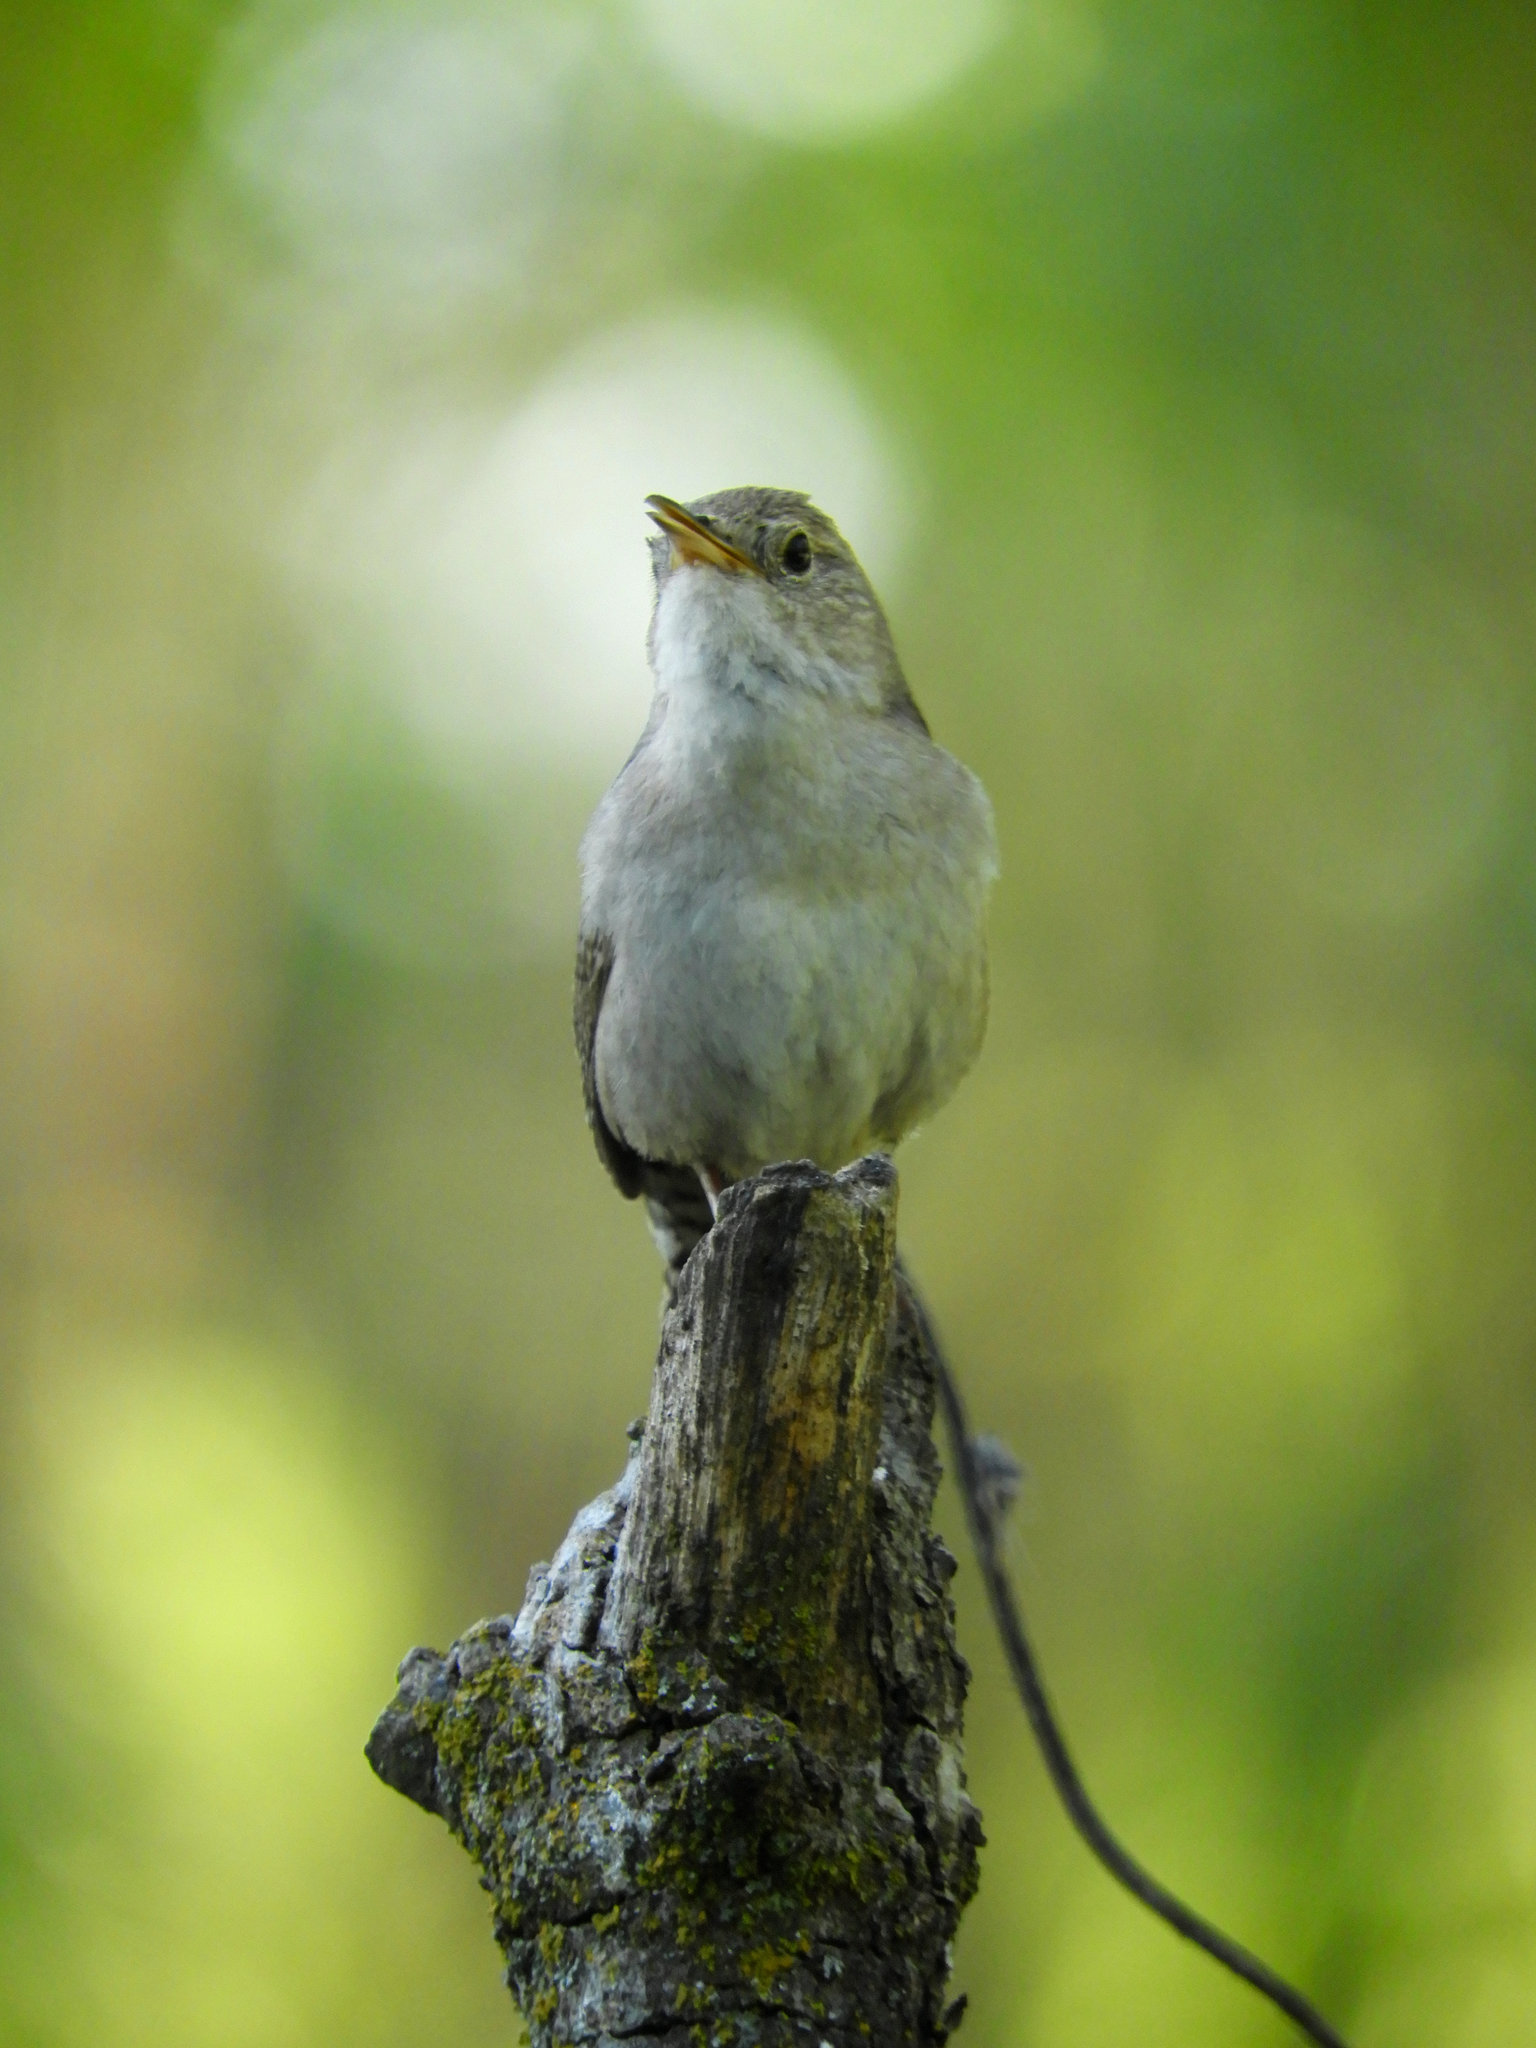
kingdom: Animalia
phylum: Chordata
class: Aves
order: Passeriformes
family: Troglodytidae
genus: Troglodytes
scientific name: Troglodytes aedon
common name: House wren
